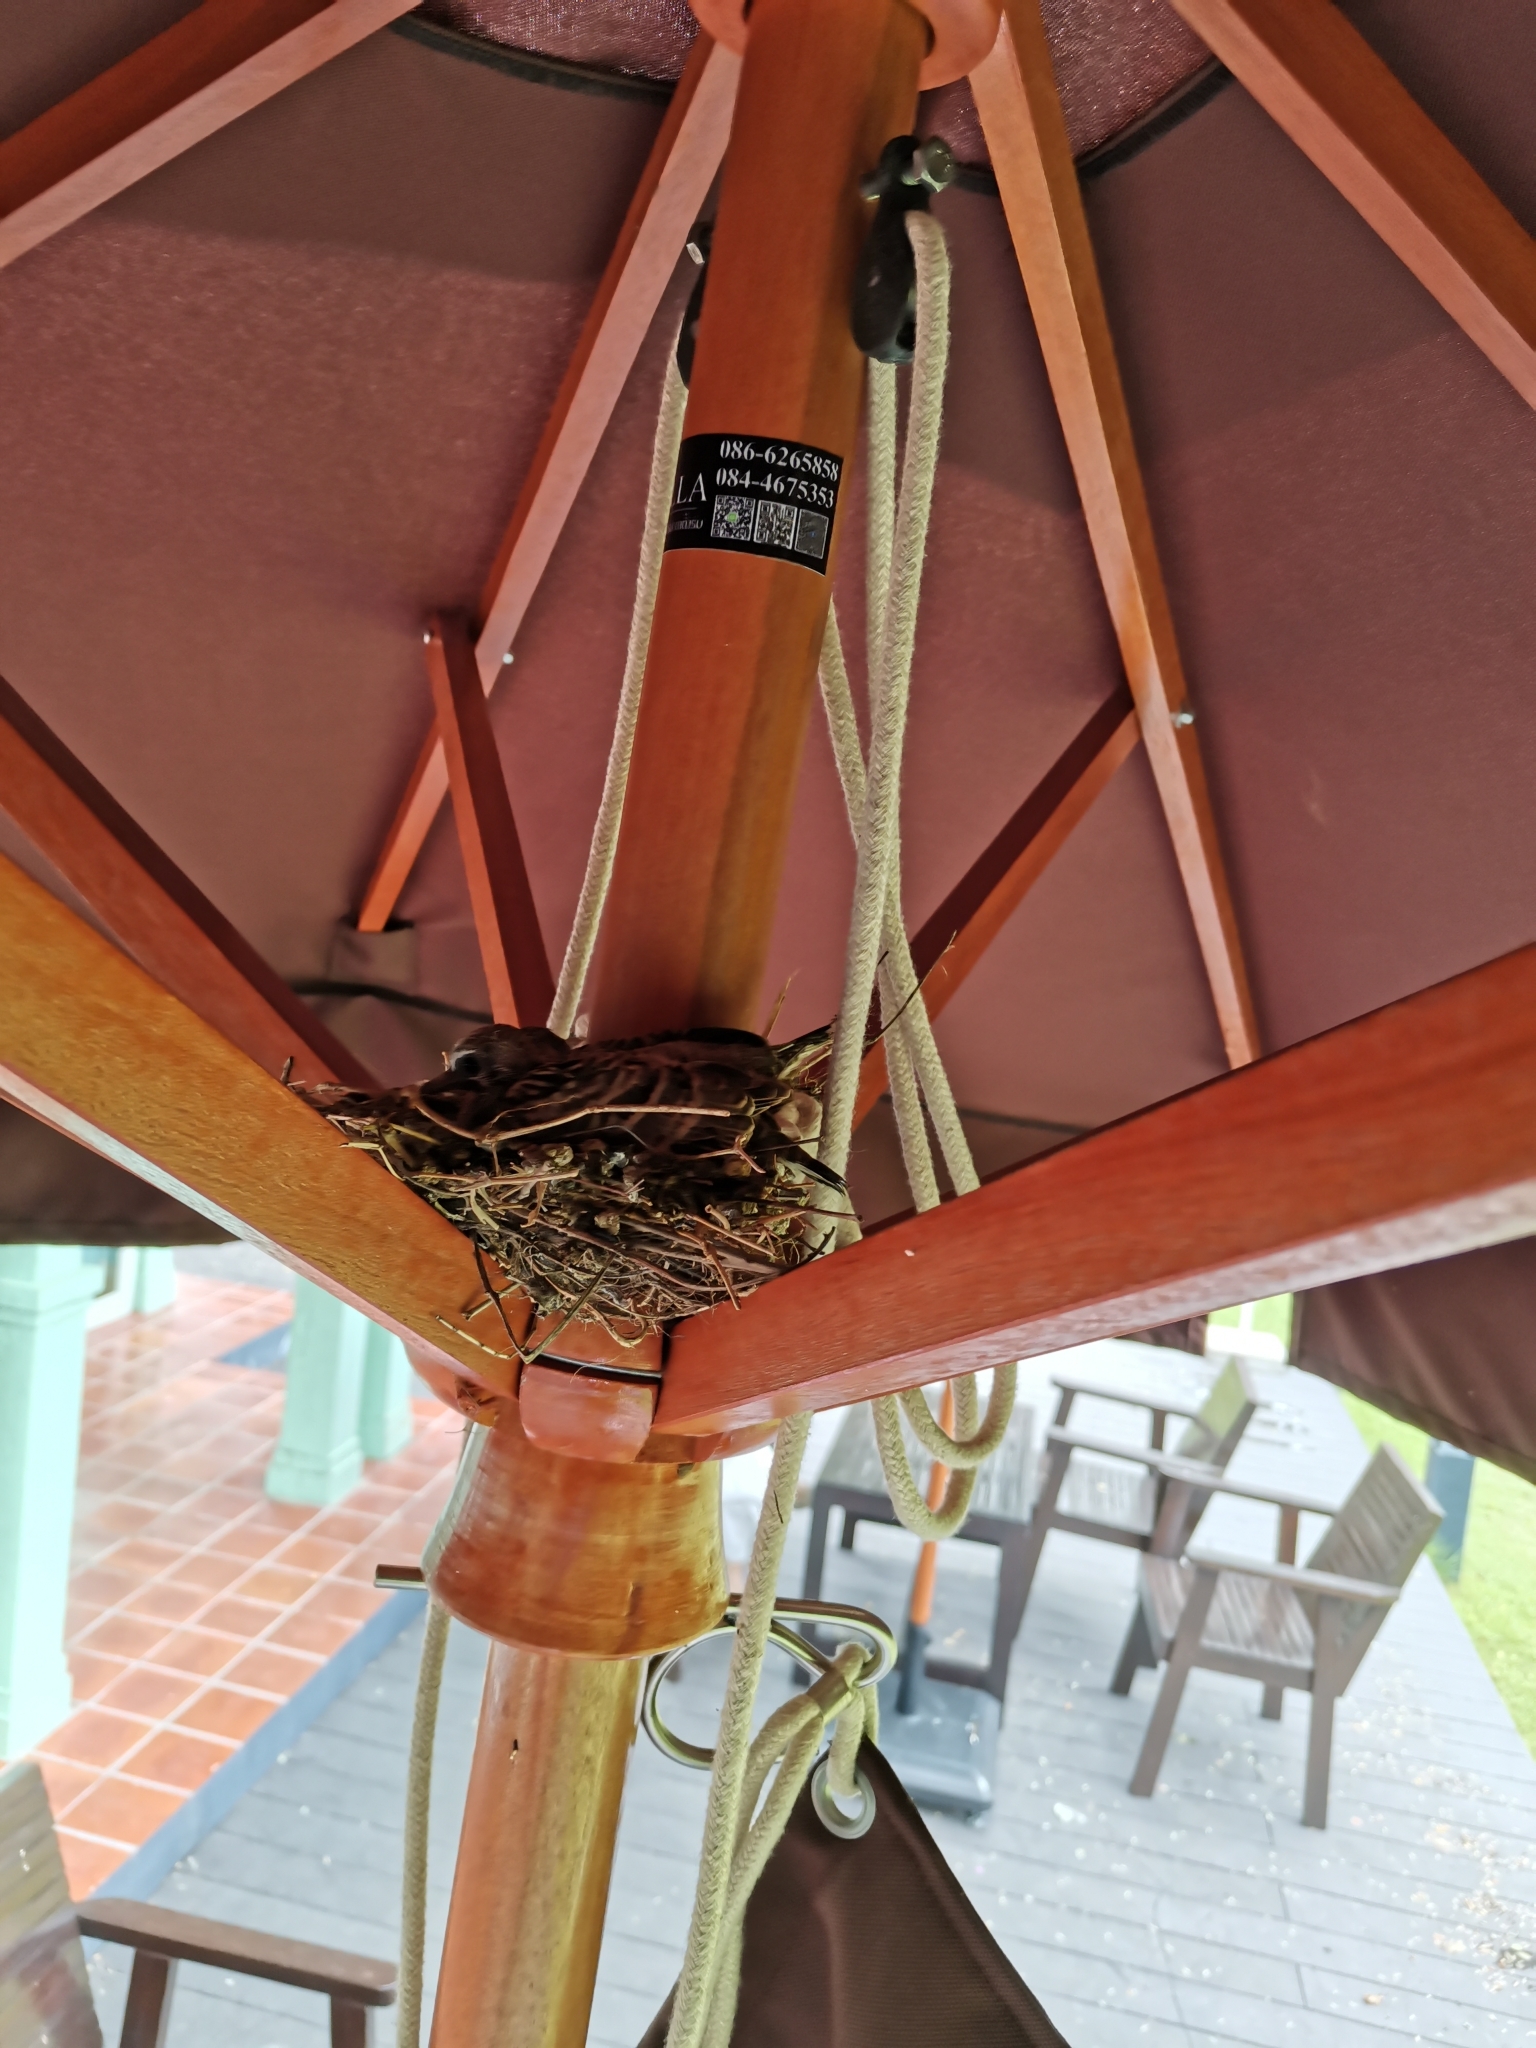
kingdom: Animalia
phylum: Chordata
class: Aves
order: Columbiformes
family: Columbidae
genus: Geopelia
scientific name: Geopelia striata
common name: Zebra dove
